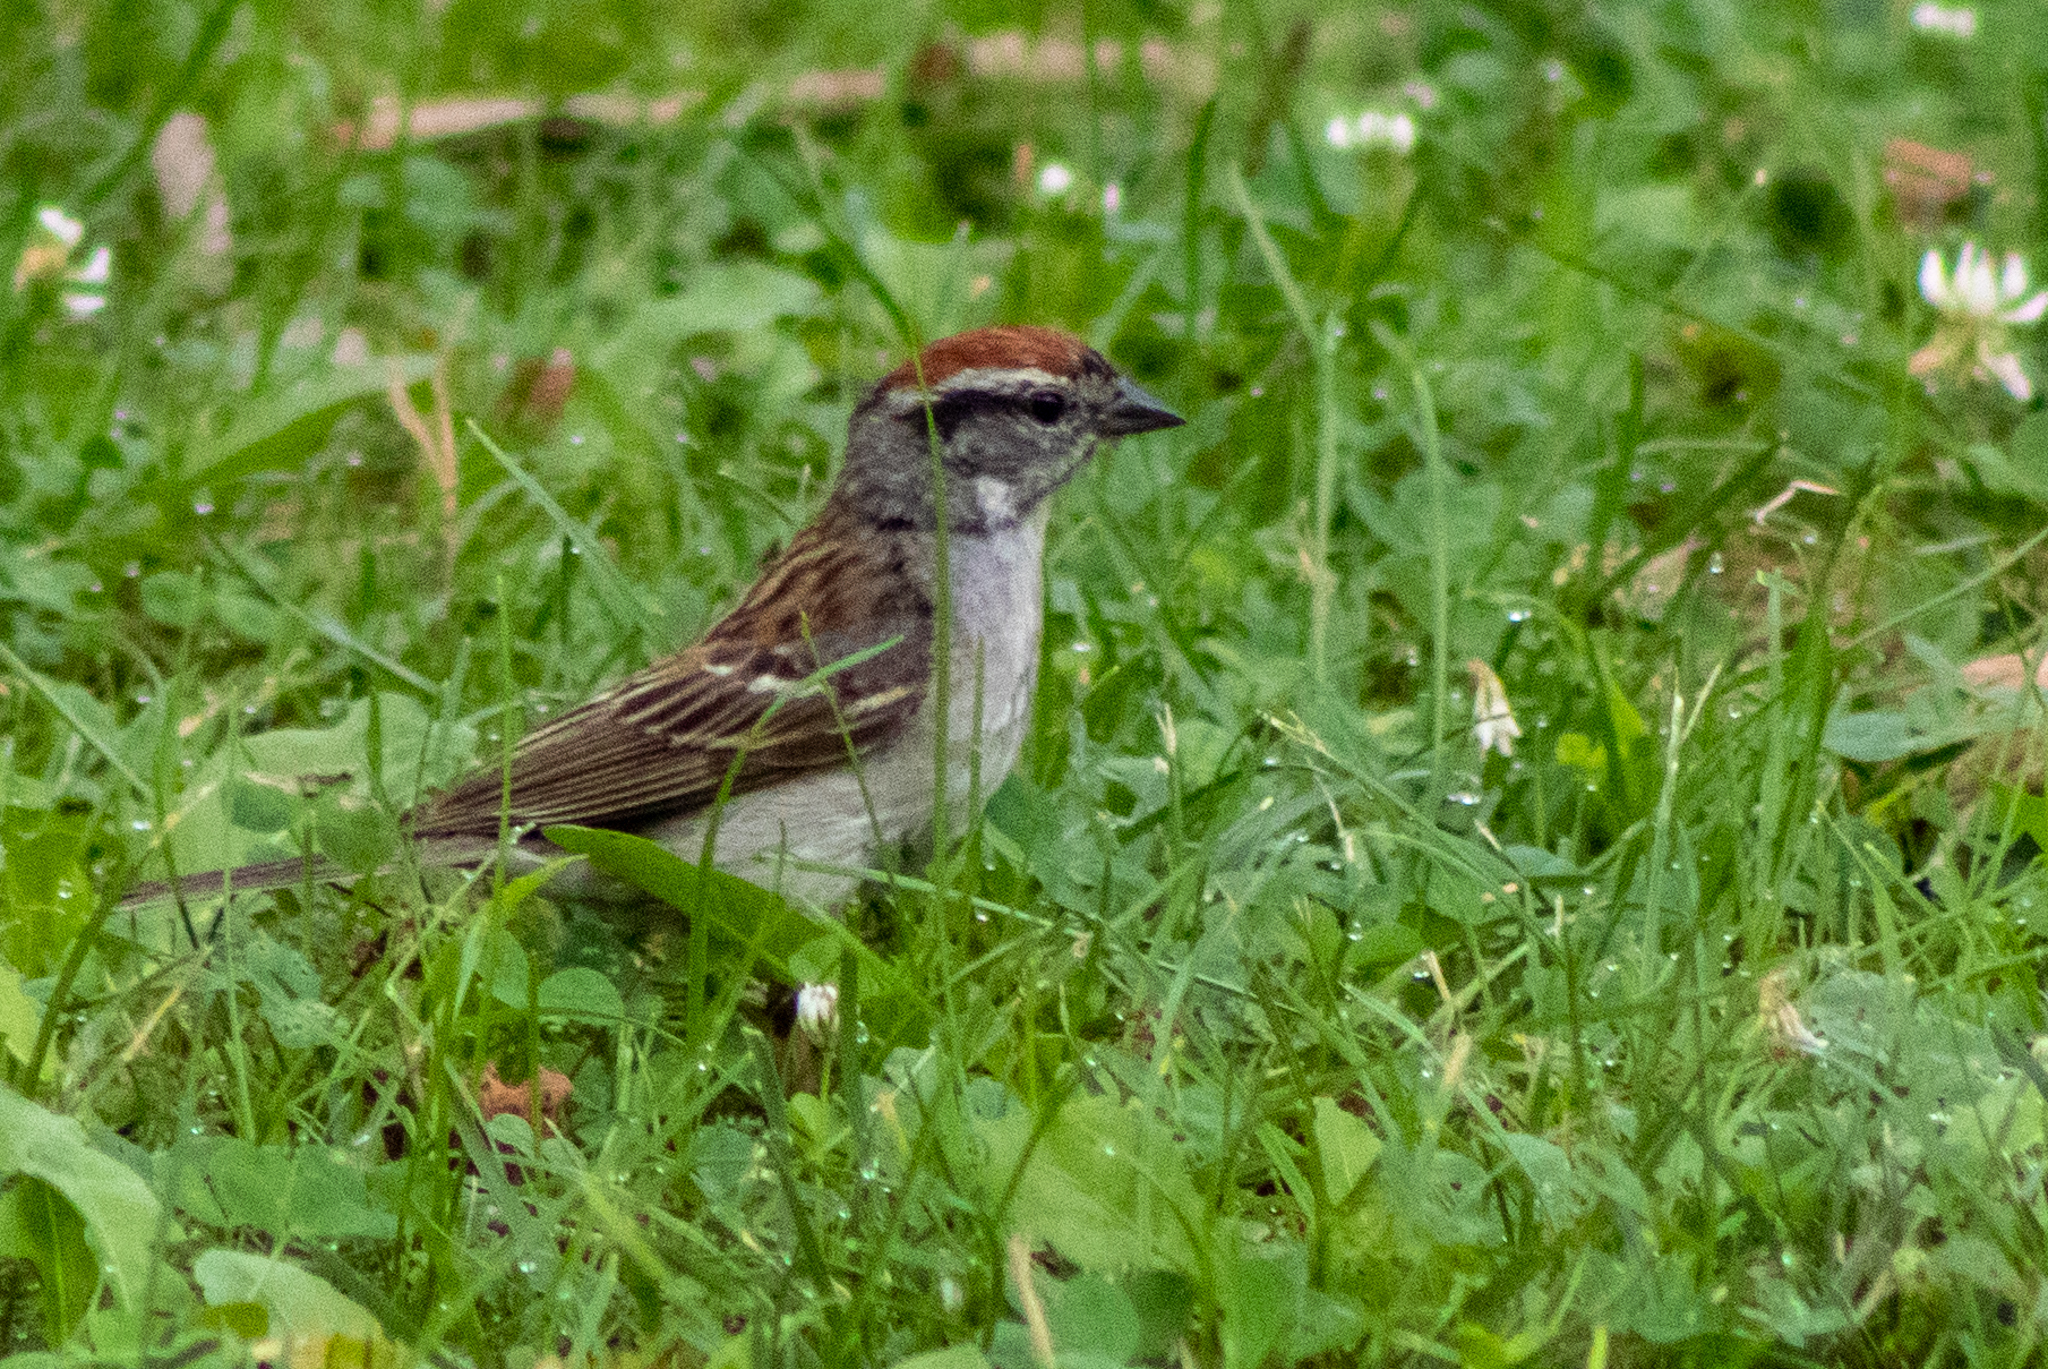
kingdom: Animalia
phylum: Chordata
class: Aves
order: Passeriformes
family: Passerellidae
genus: Spizella
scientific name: Spizella passerina
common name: Chipping sparrow
